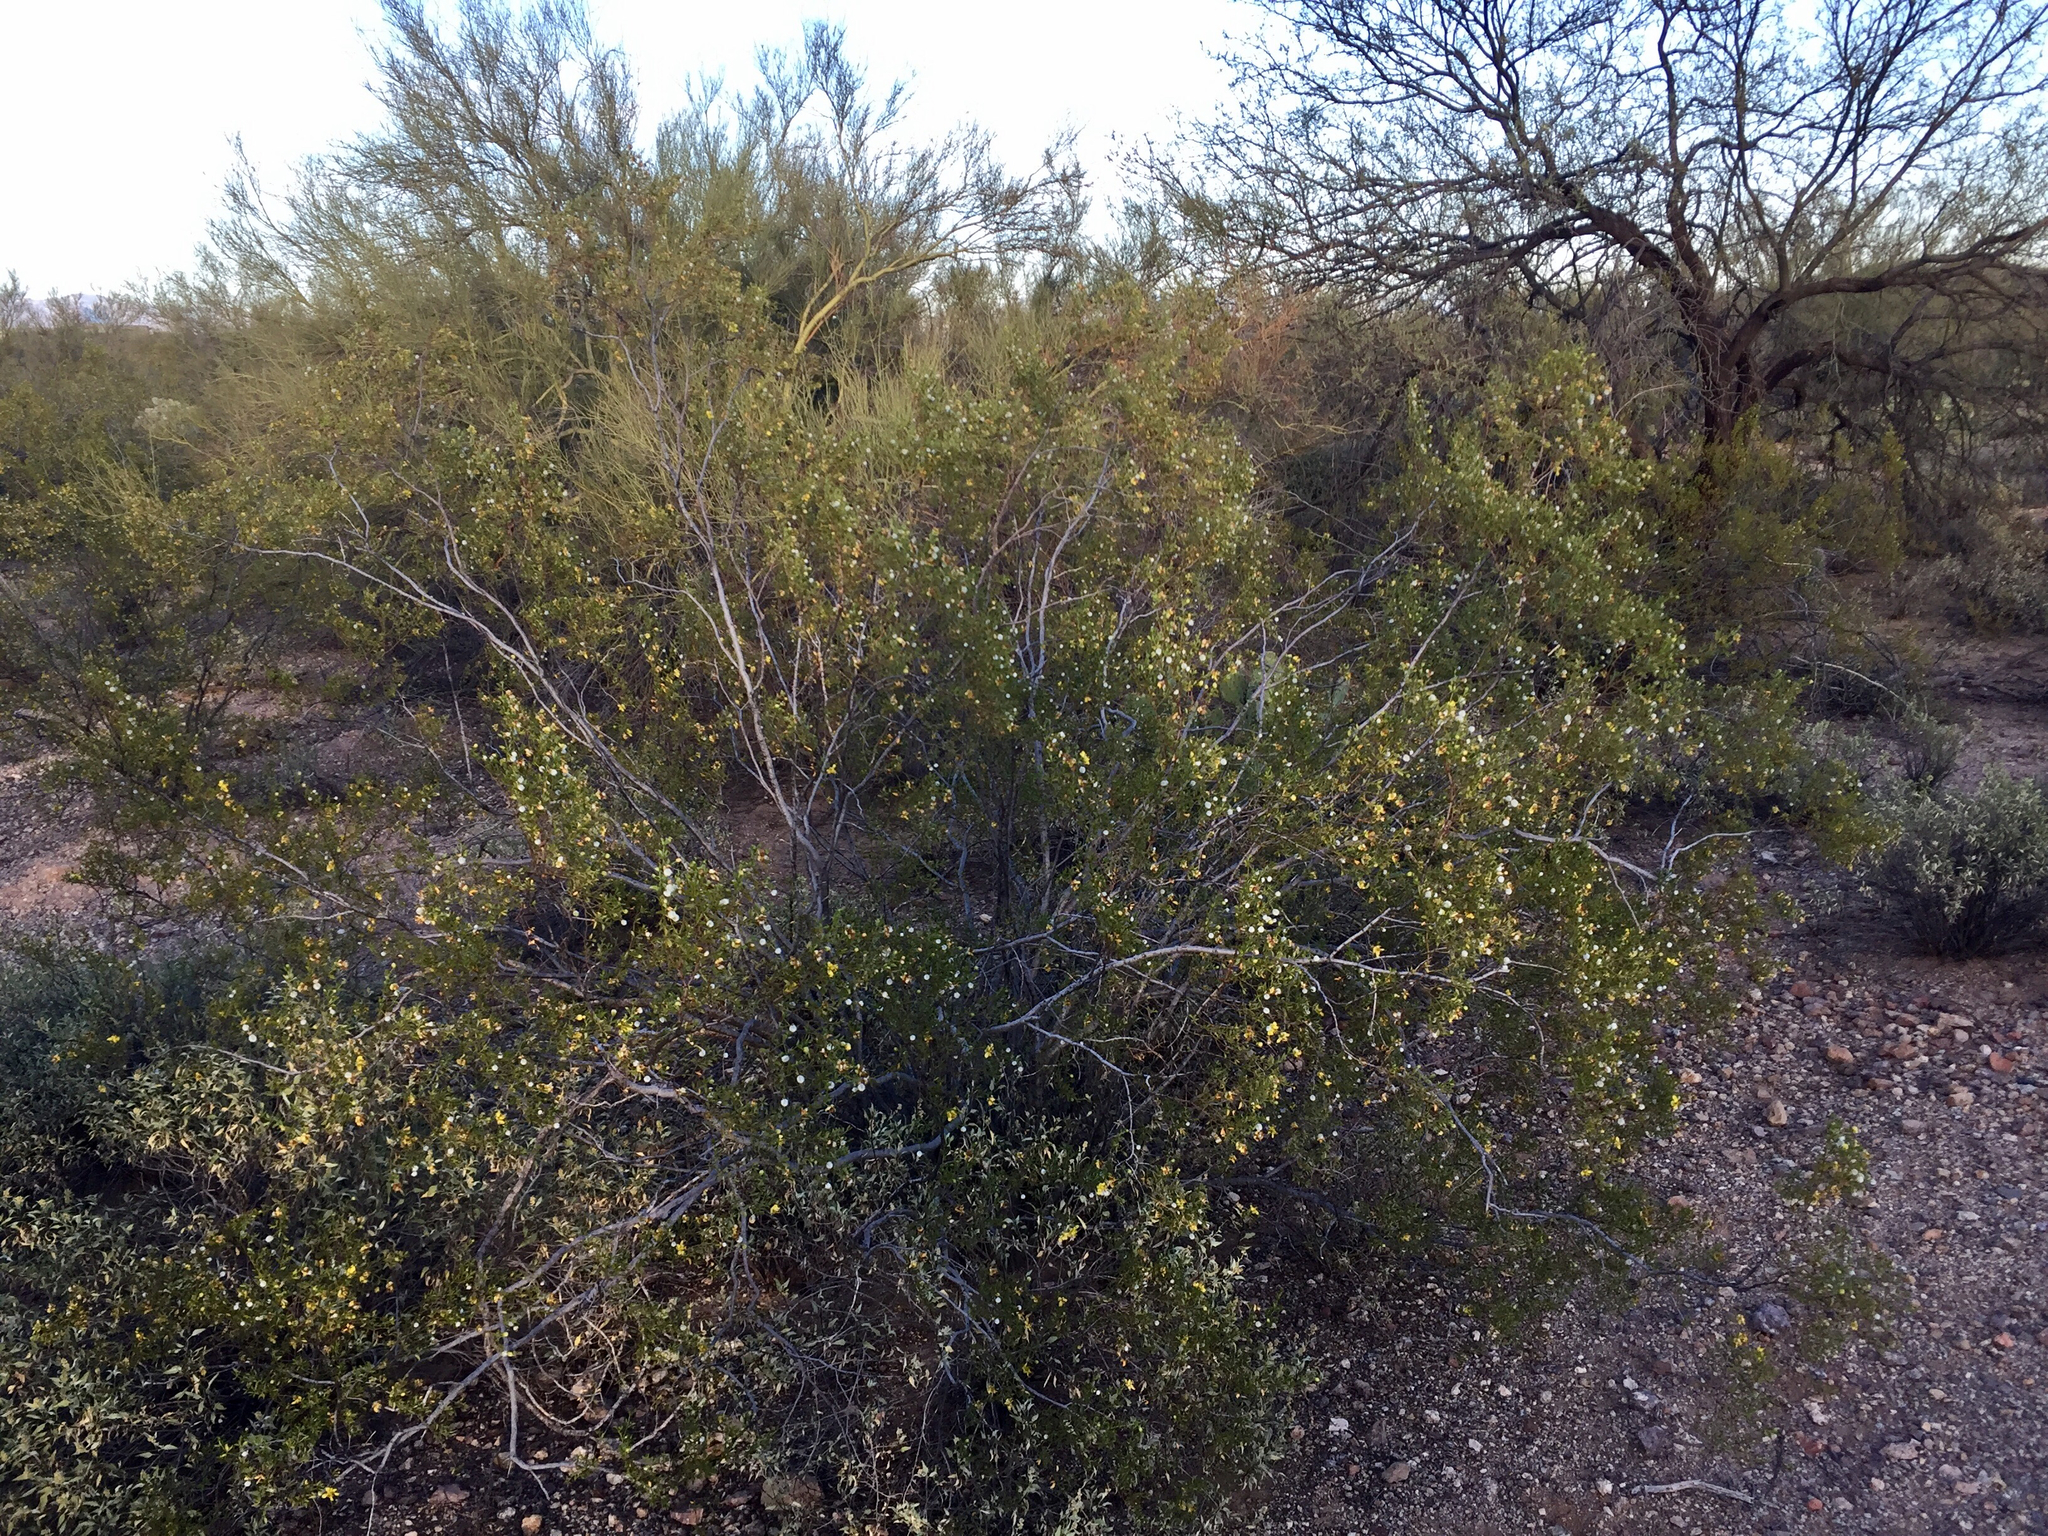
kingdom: Plantae
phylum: Tracheophyta
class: Magnoliopsida
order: Zygophyllales
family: Zygophyllaceae
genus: Larrea
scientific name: Larrea tridentata
